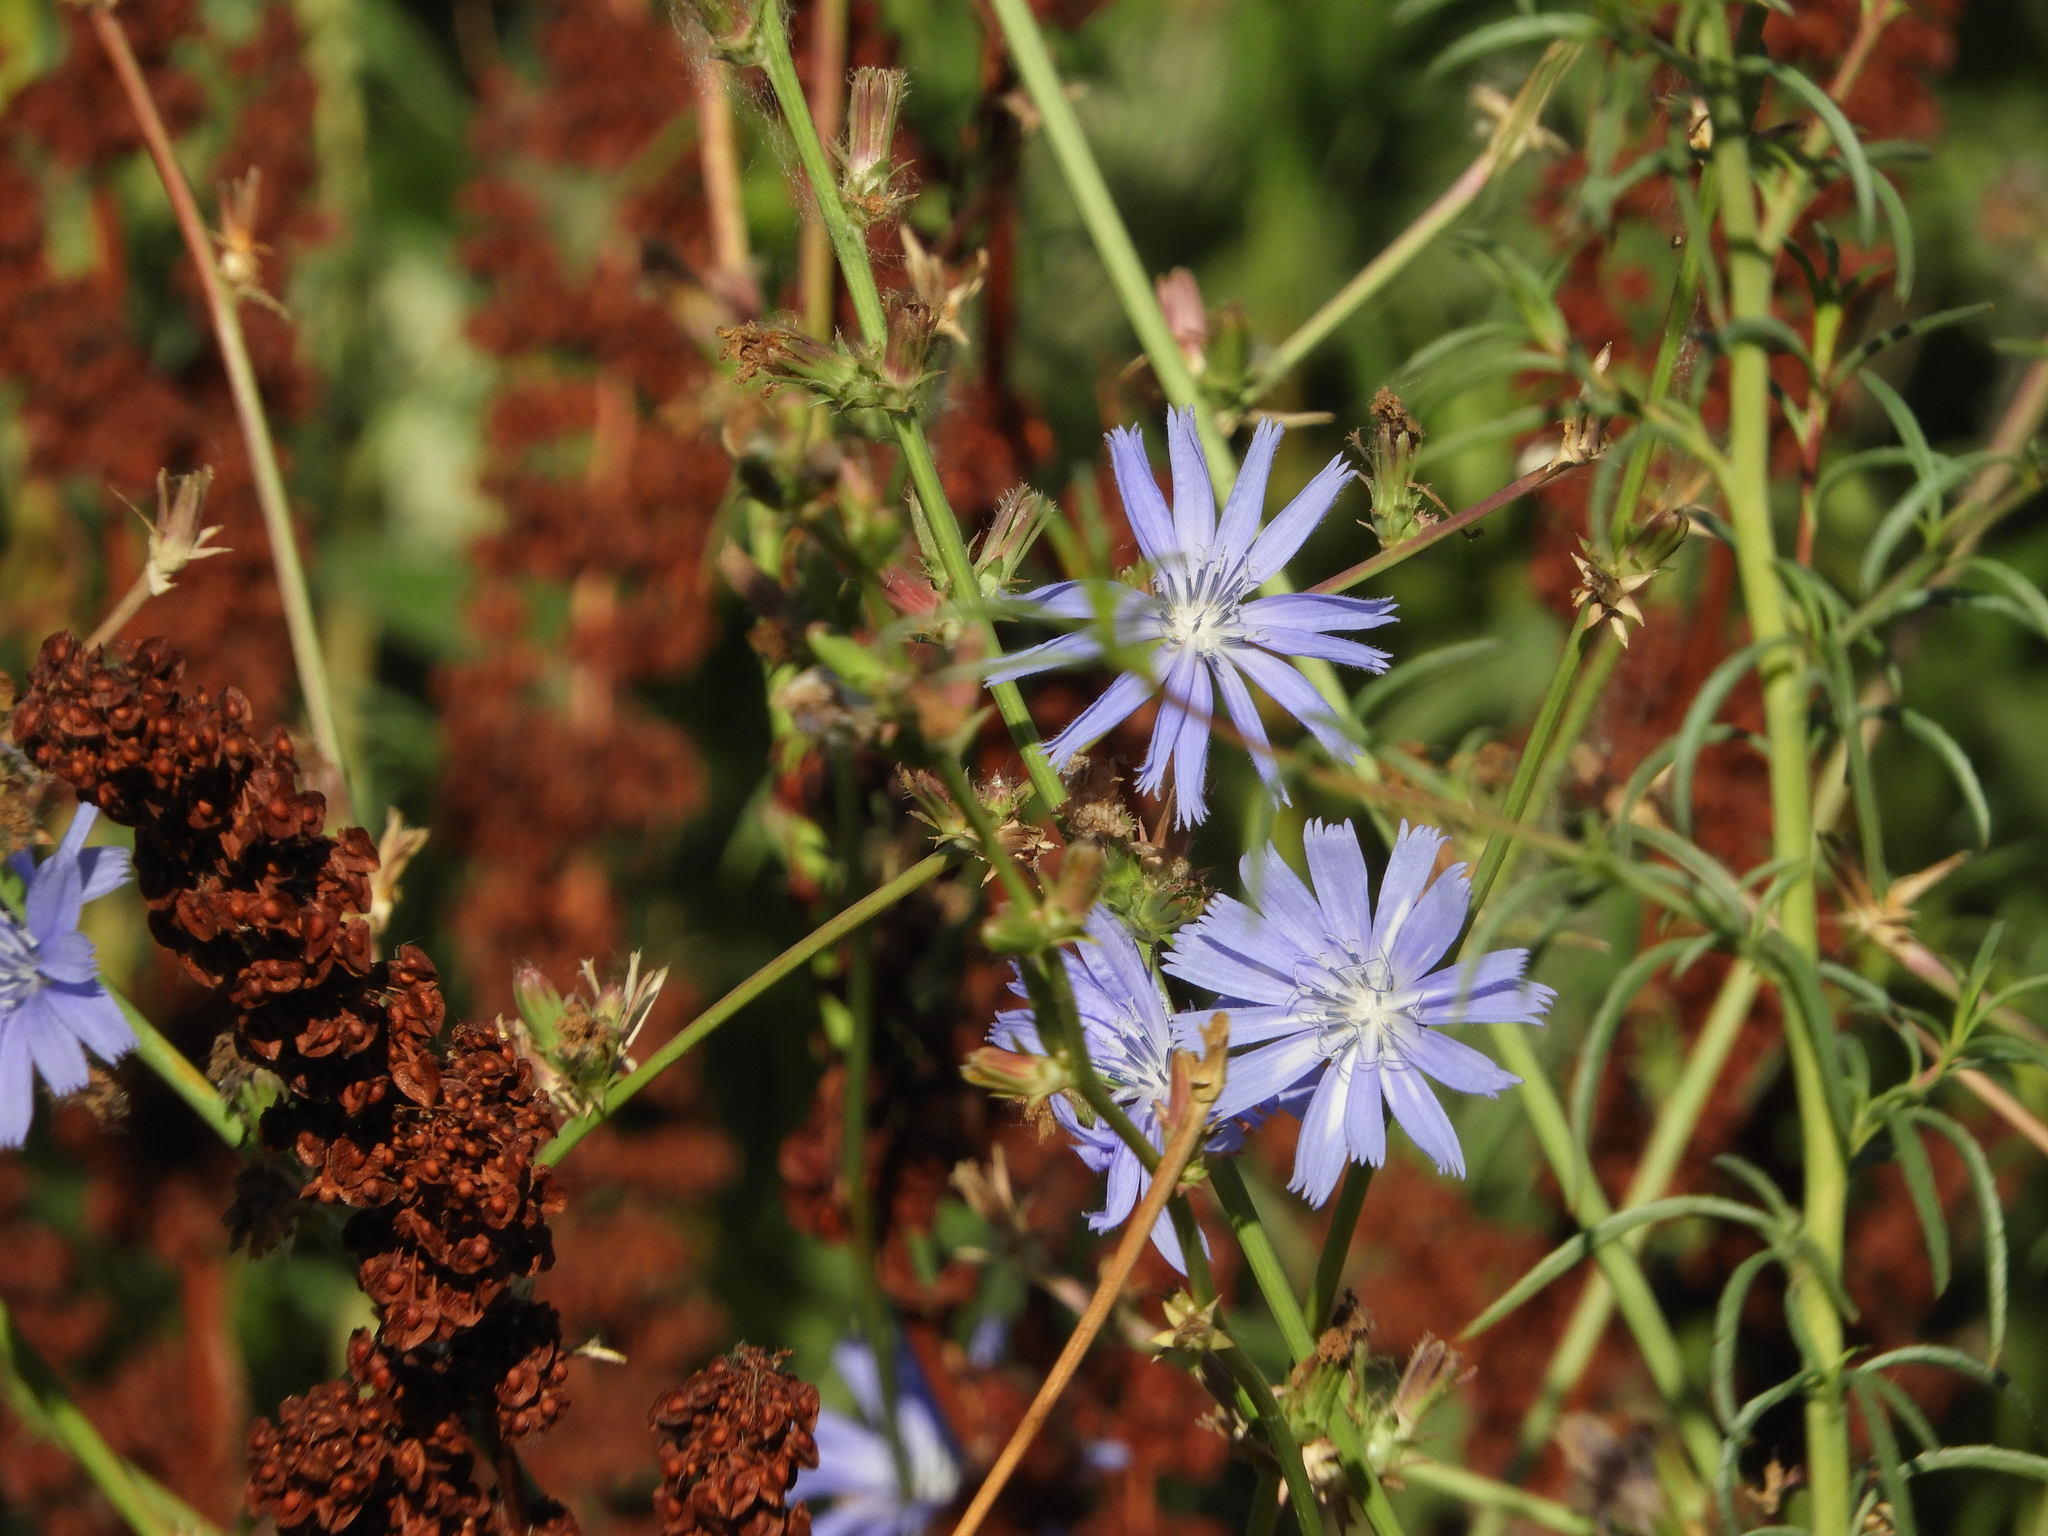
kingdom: Plantae
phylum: Tracheophyta
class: Magnoliopsida
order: Asterales
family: Asteraceae
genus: Cichorium
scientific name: Cichorium intybus
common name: Chicory
